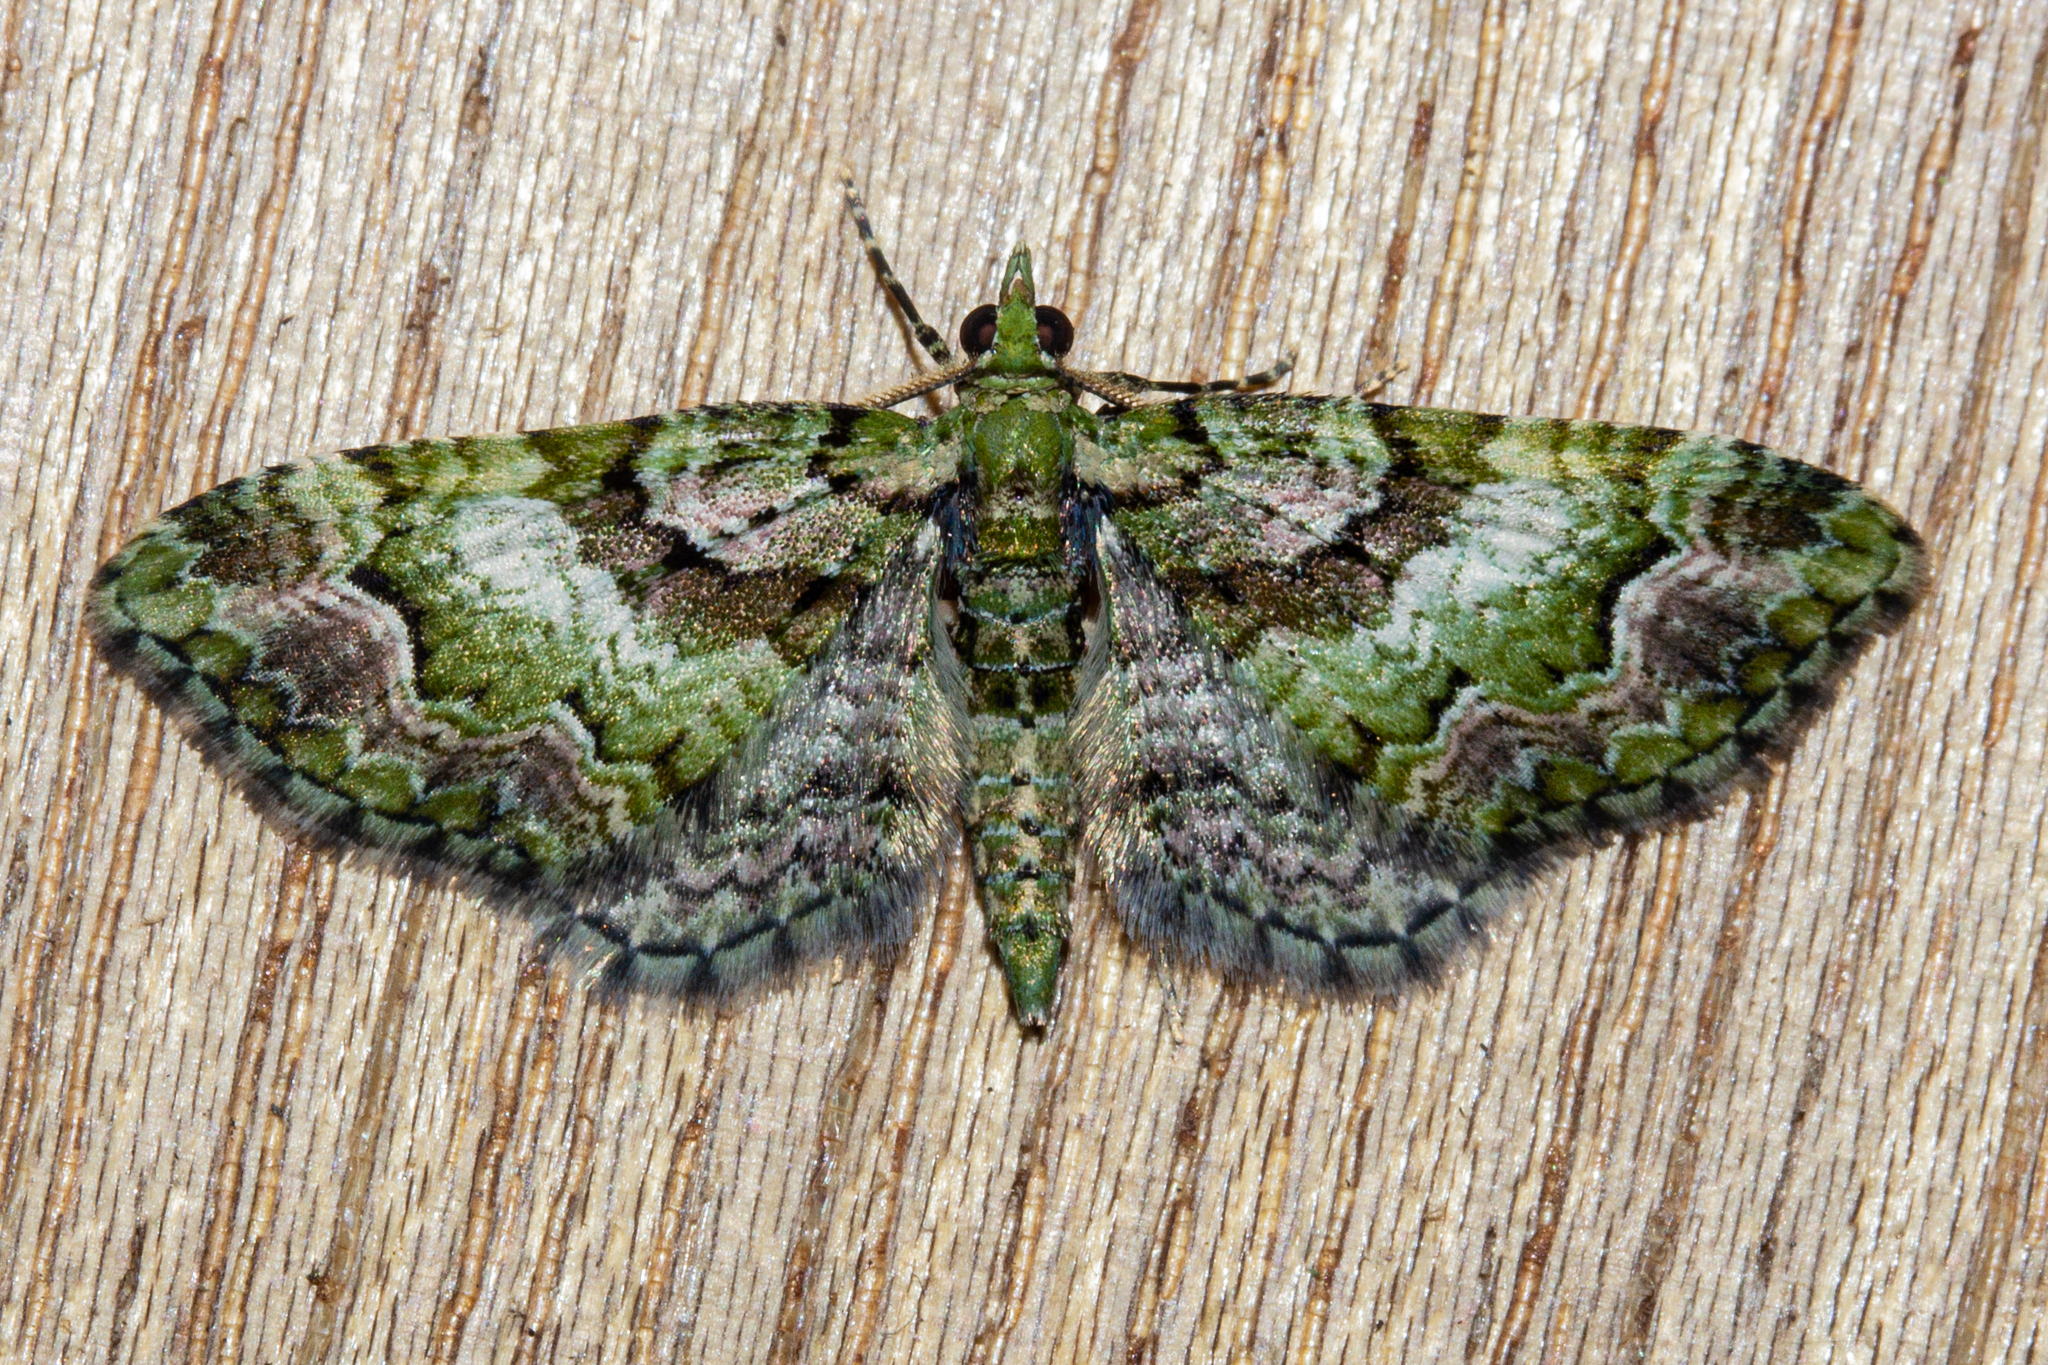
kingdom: Animalia
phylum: Arthropoda
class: Insecta
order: Lepidoptera
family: Geometridae
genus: Pasiphila
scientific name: Pasiphila punicea
